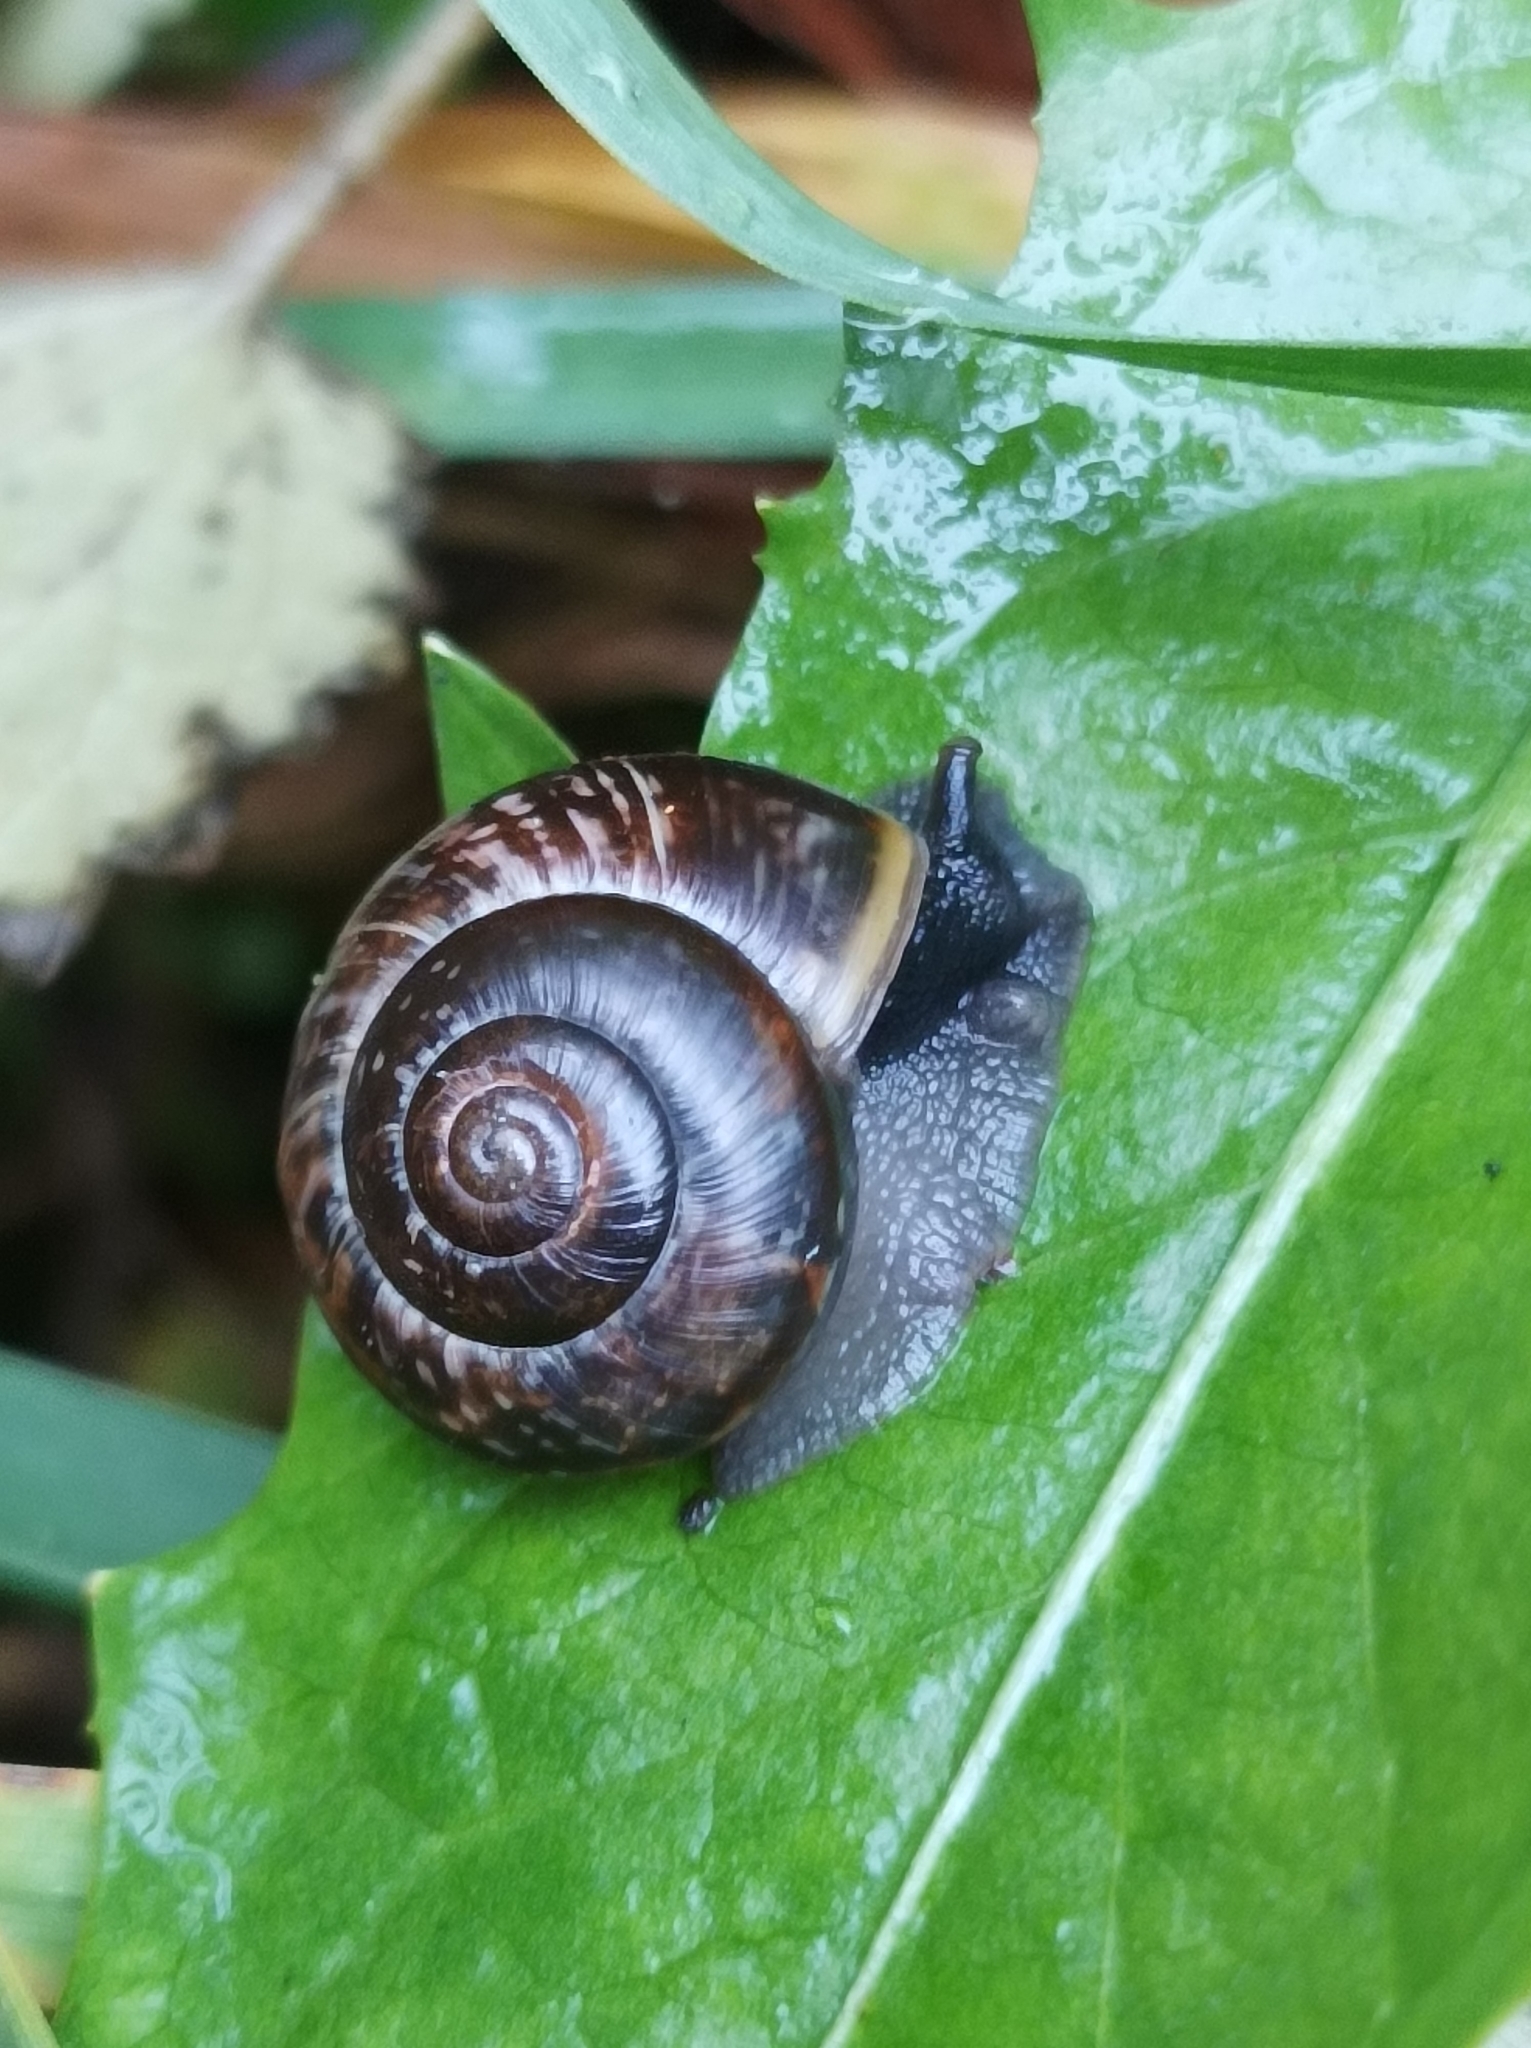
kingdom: Animalia
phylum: Mollusca
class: Gastropoda
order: Stylommatophora
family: Helicidae
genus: Arianta
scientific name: Arianta arbustorum
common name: Copse snail
